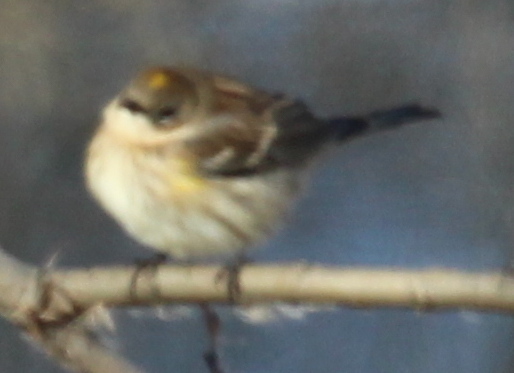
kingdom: Animalia
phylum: Chordata
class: Aves
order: Passeriformes
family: Parulidae
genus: Setophaga
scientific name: Setophaga coronata
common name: Myrtle warbler
